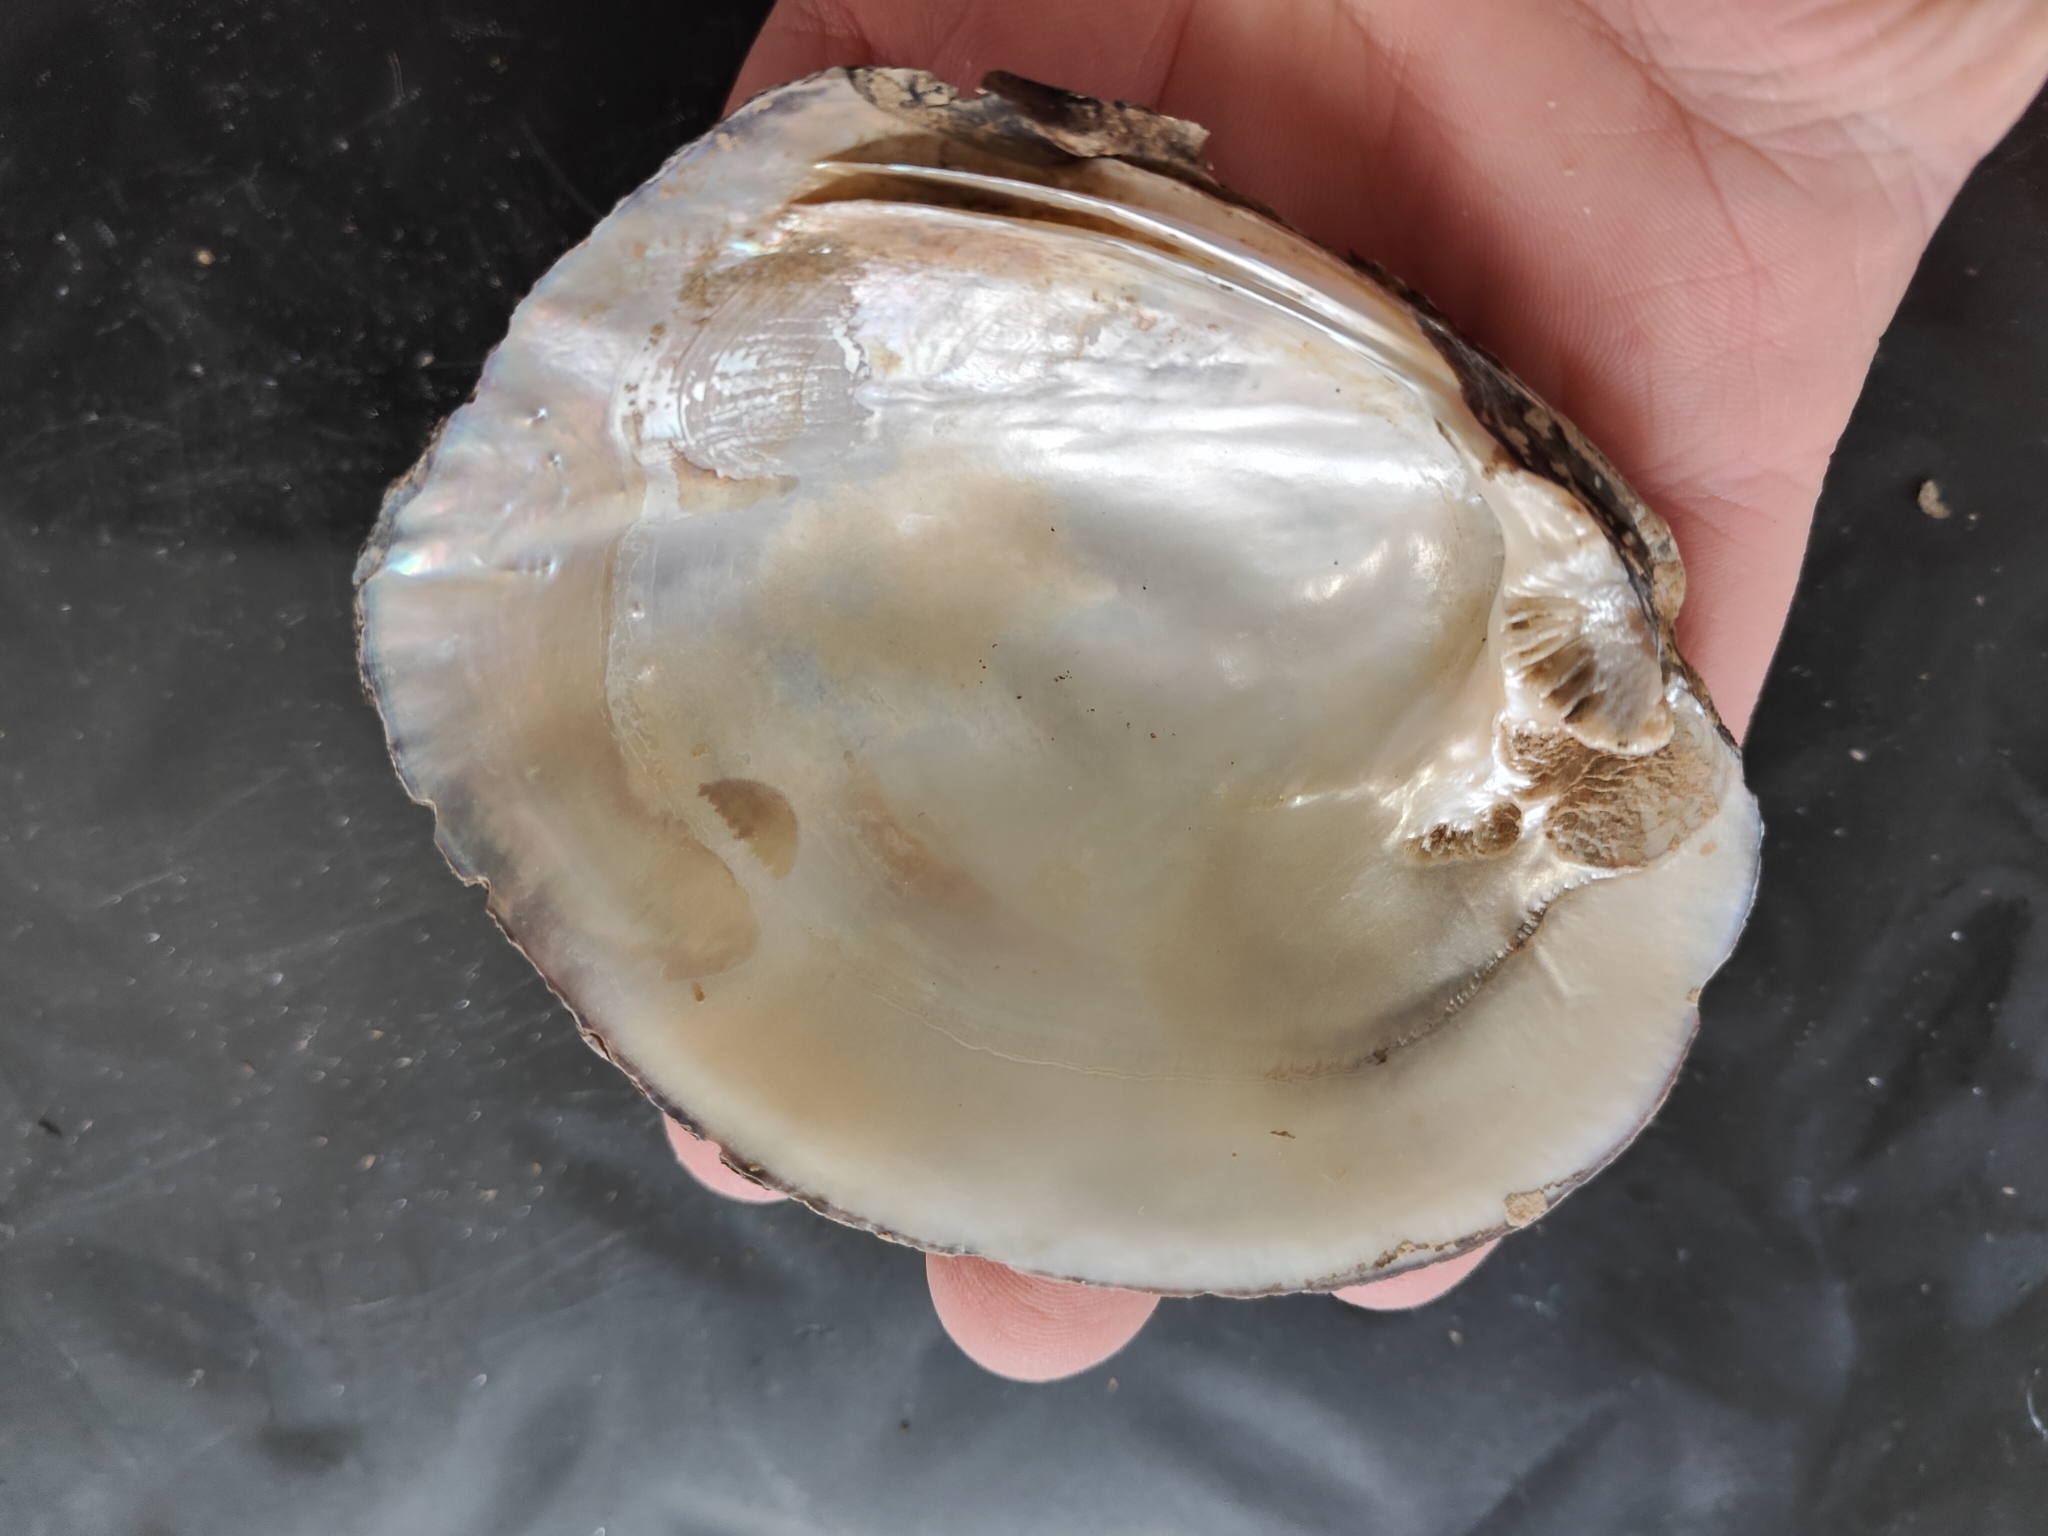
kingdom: Animalia
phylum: Mollusca
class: Bivalvia
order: Unionida
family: Unionidae
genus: Amblema
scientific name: Amblema plicata
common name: Threeridge
